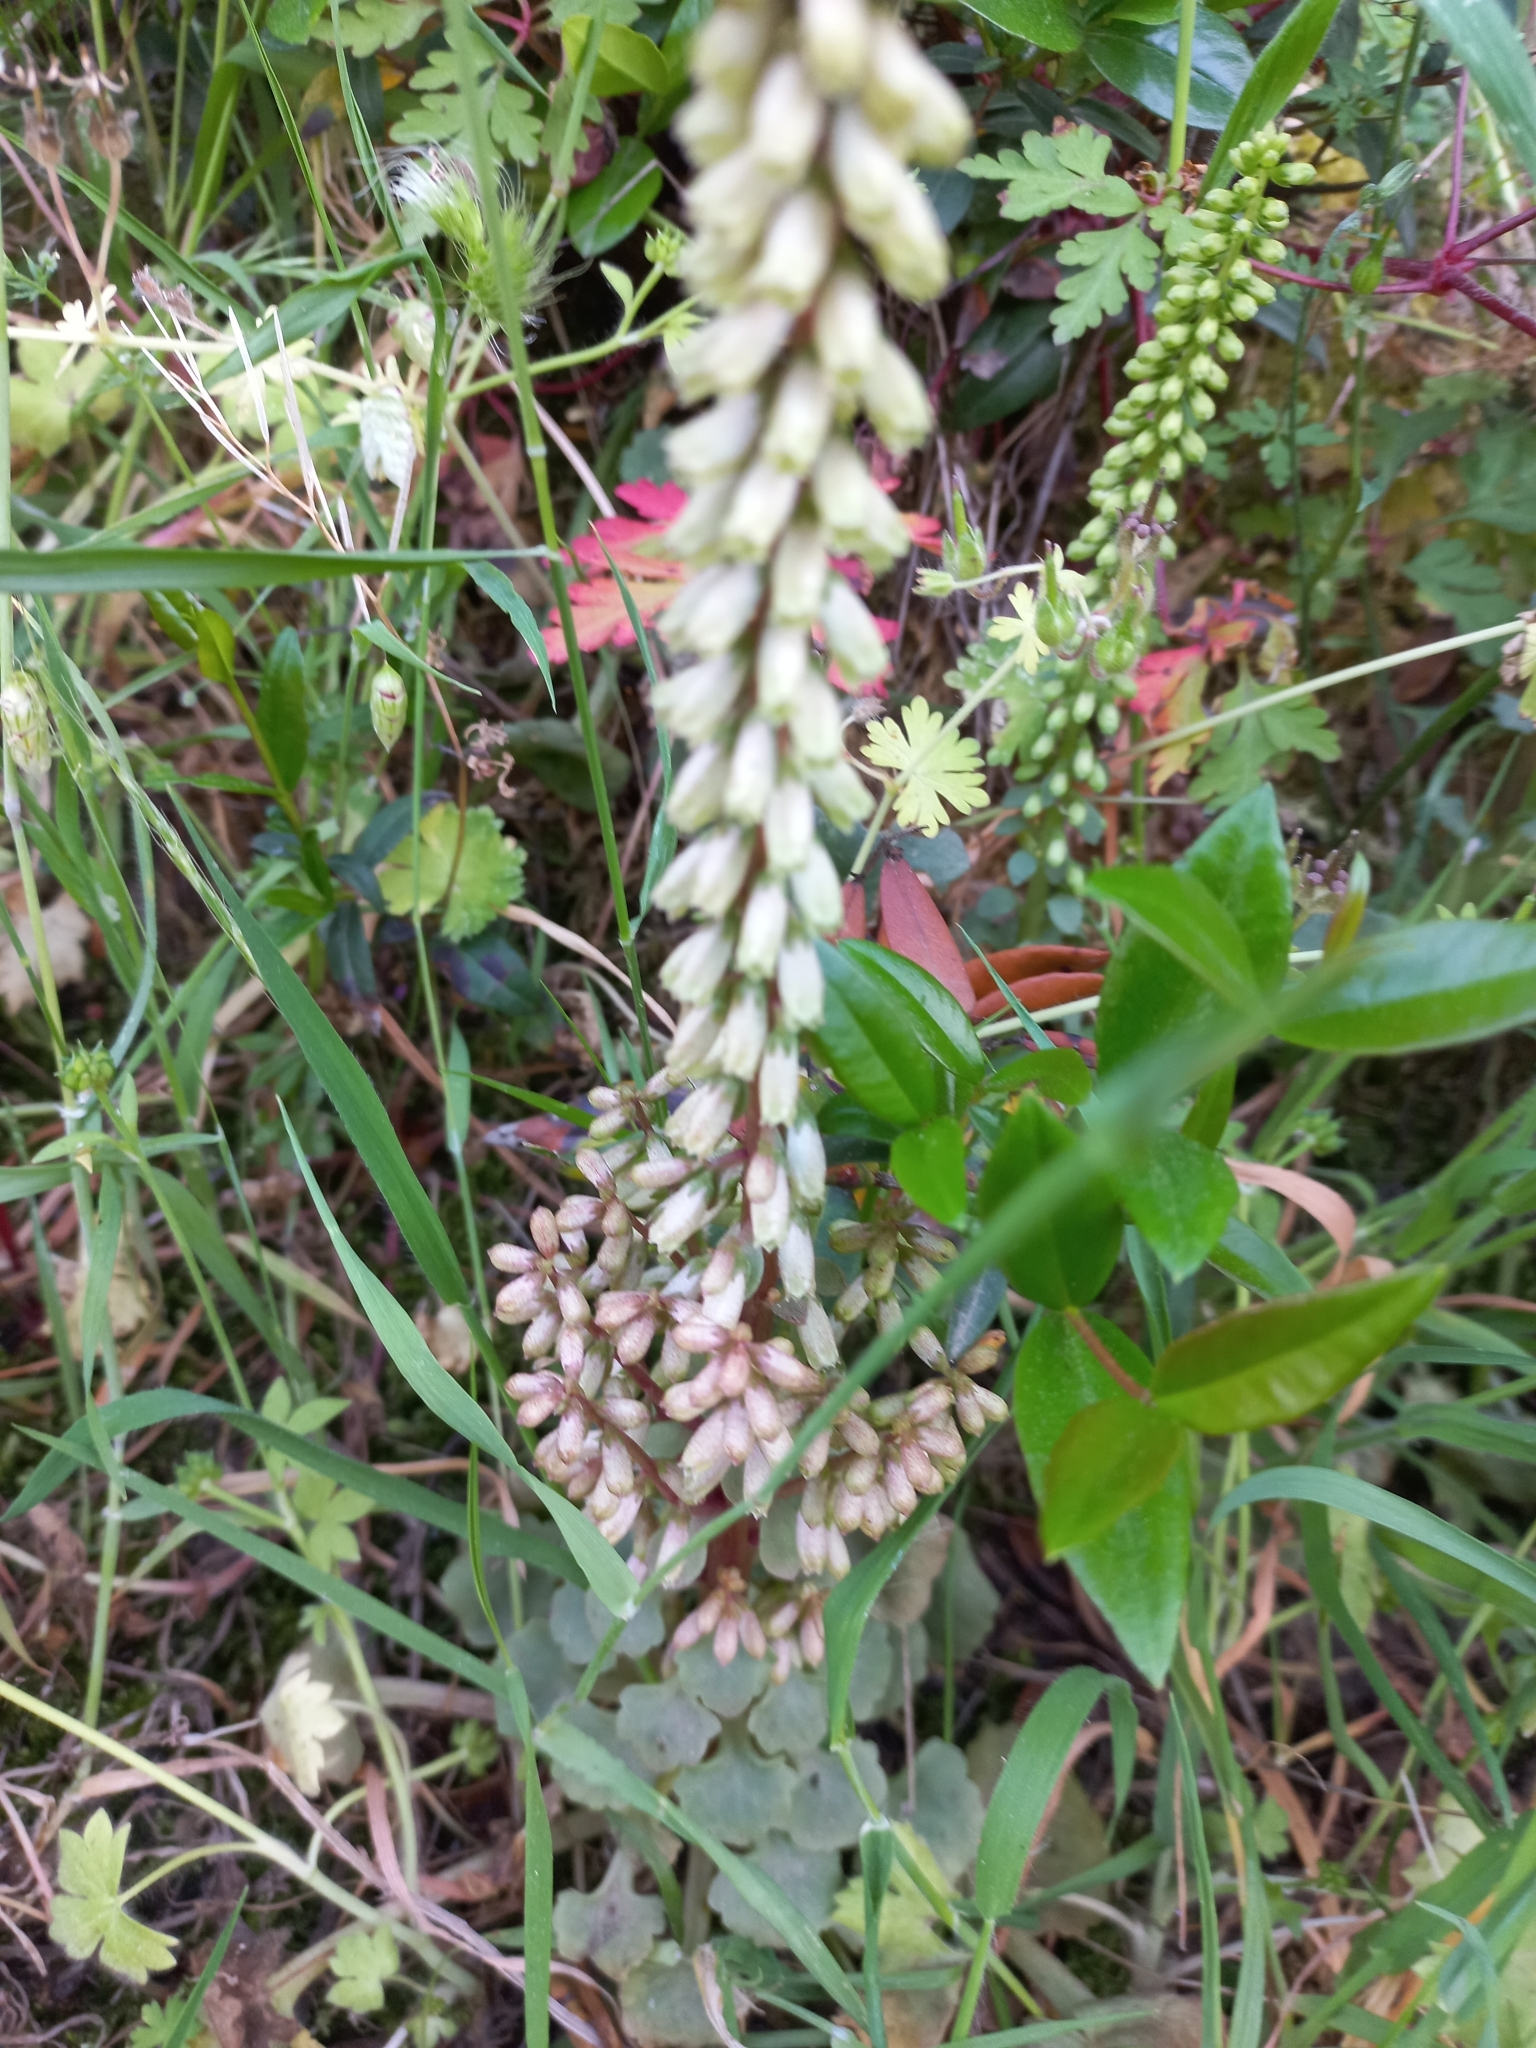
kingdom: Plantae
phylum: Tracheophyta
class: Magnoliopsida
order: Saxifragales
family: Crassulaceae
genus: Umbilicus
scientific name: Umbilicus rupestris
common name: Navelwort
